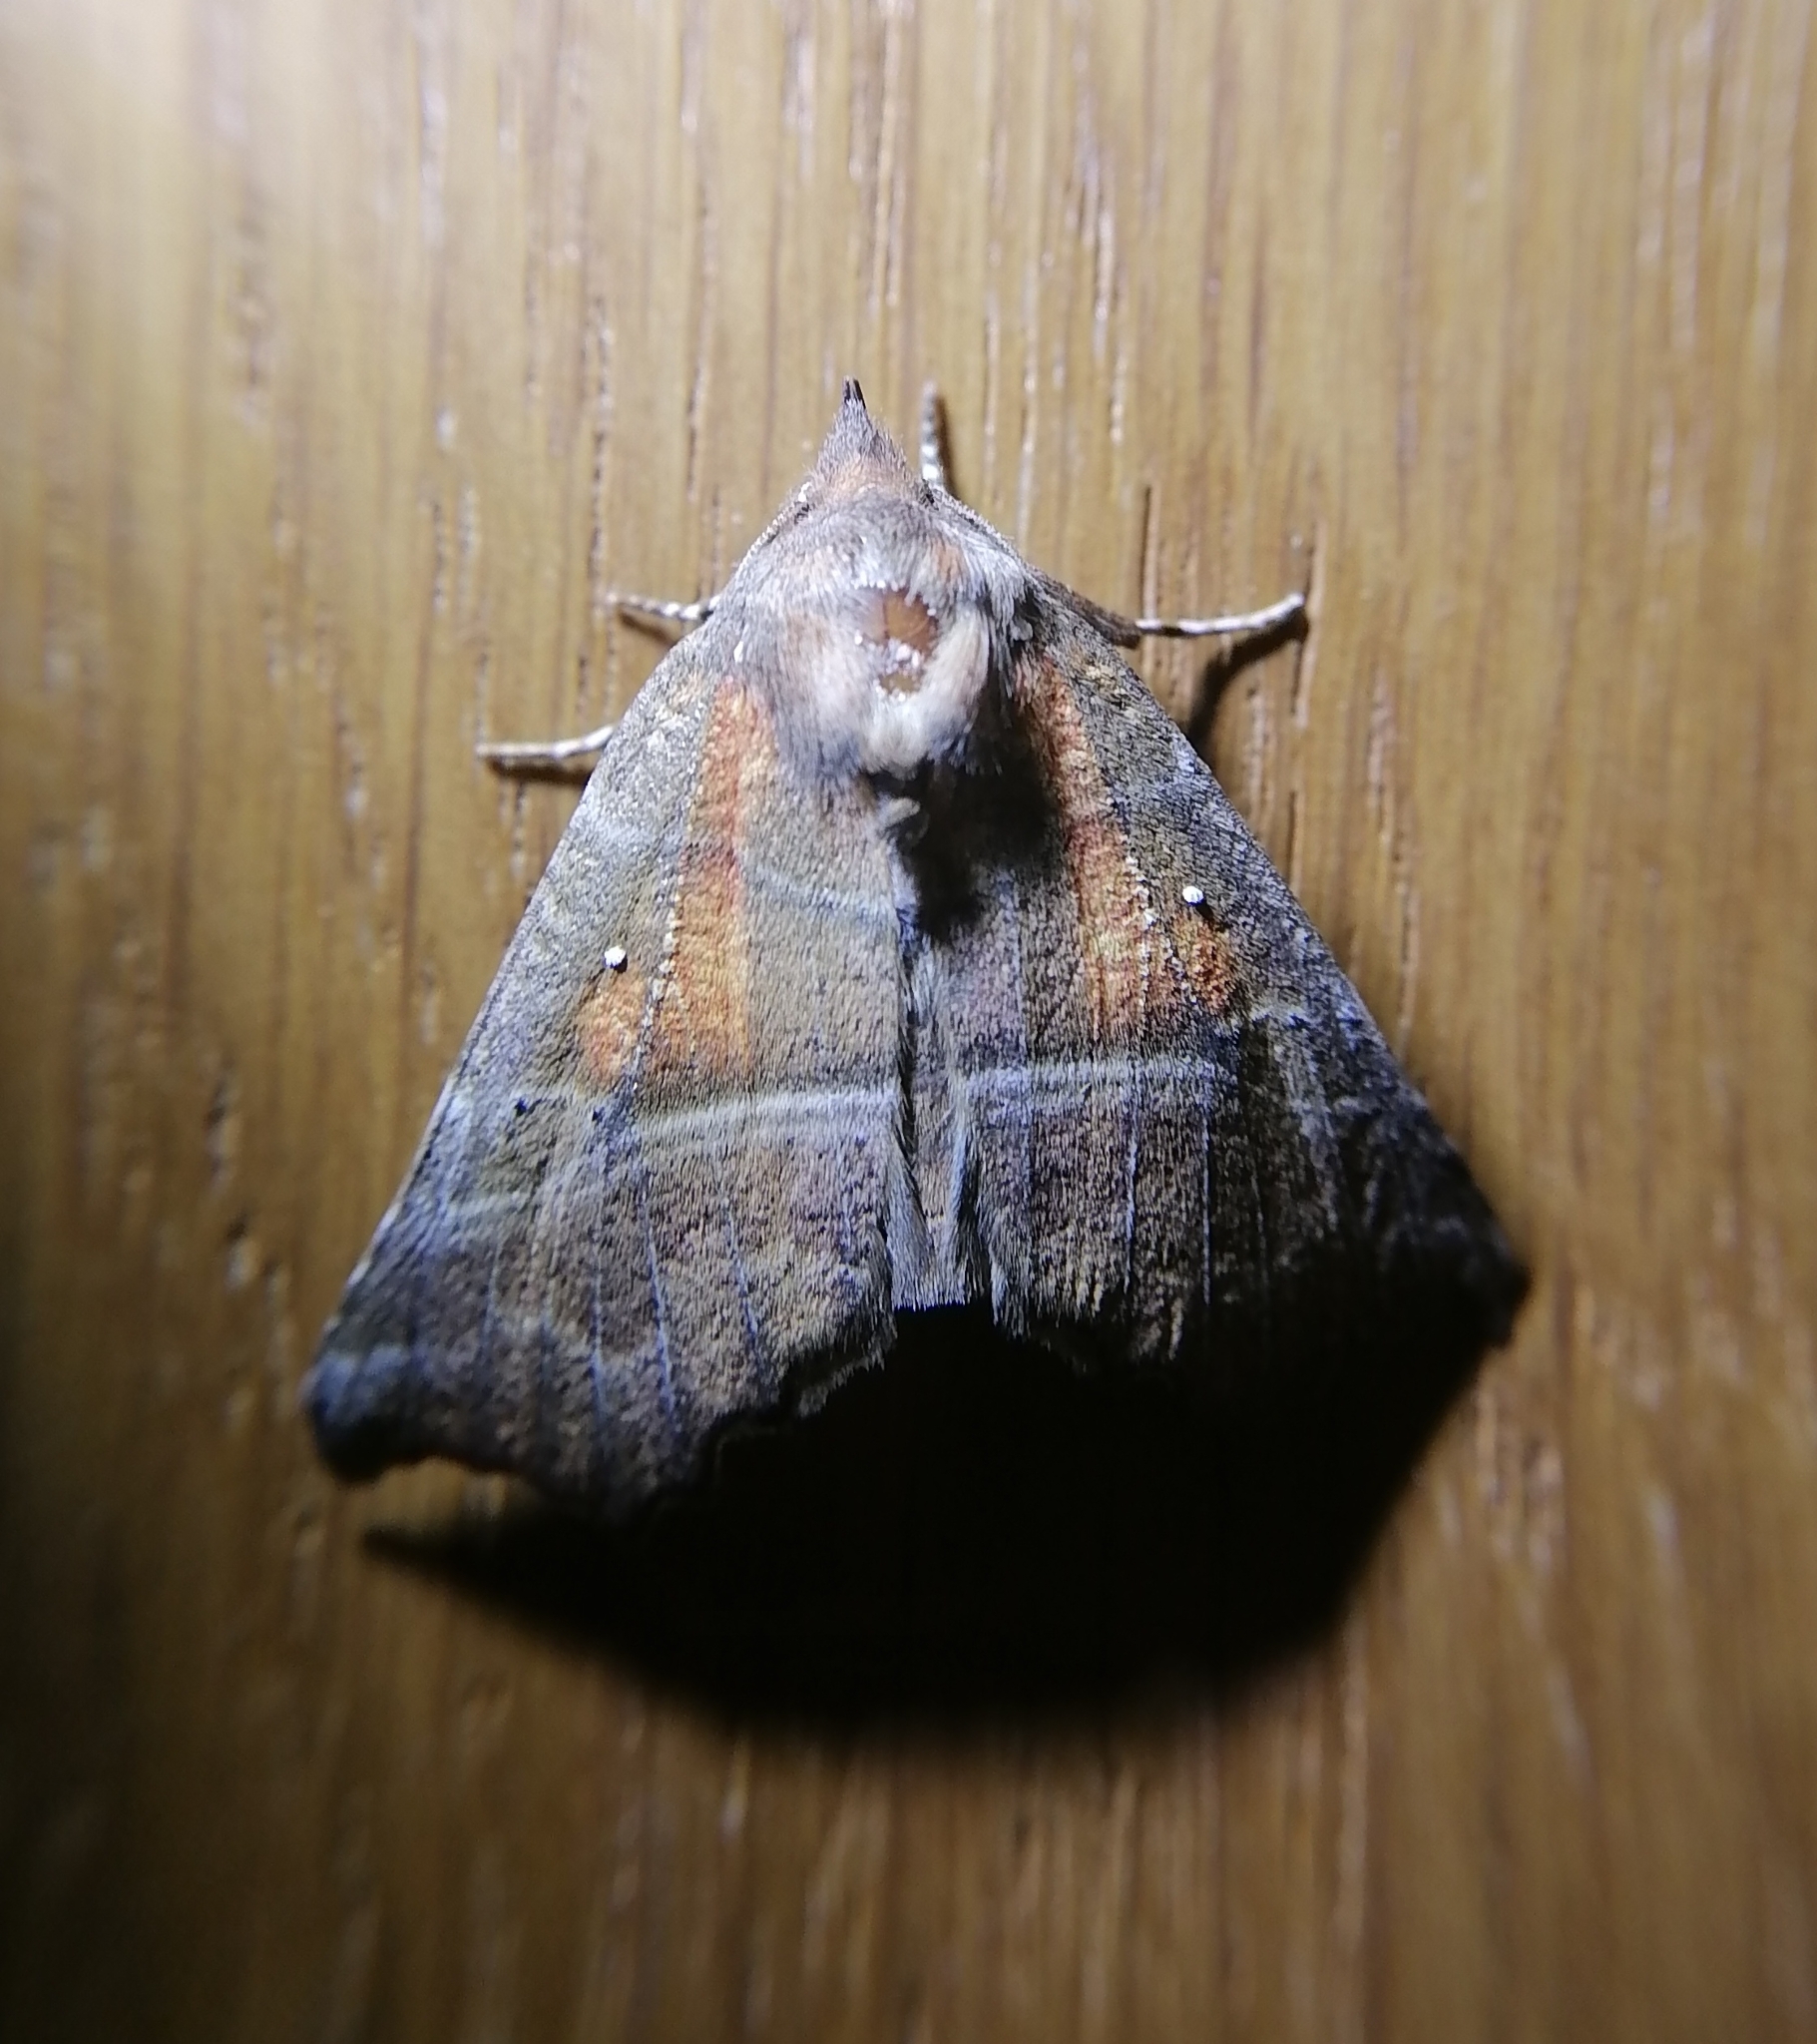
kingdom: Animalia
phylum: Arthropoda
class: Insecta
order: Lepidoptera
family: Erebidae
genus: Scoliopteryx
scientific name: Scoliopteryx libatrix
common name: Herald
